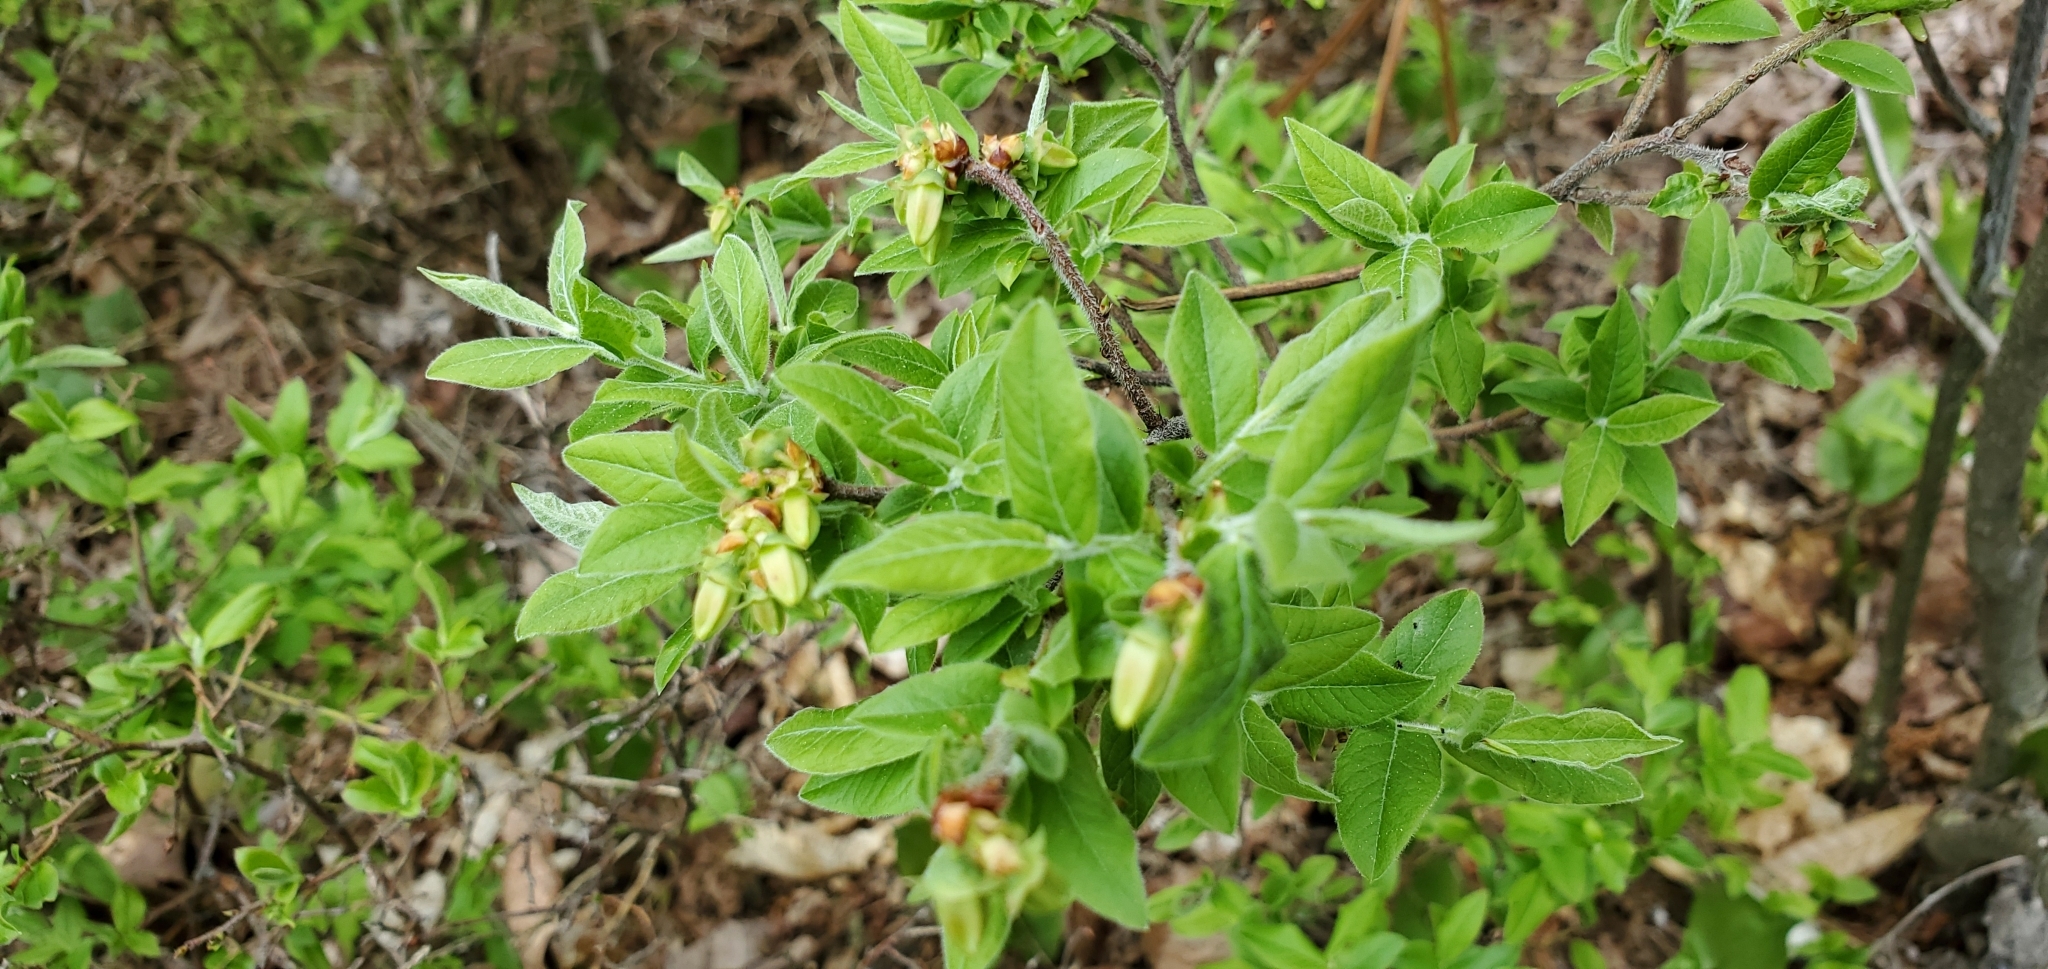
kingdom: Plantae
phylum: Tracheophyta
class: Magnoliopsida
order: Ericales
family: Ericaceae
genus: Vaccinium
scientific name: Vaccinium myrtilloides
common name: Canada blueberry
